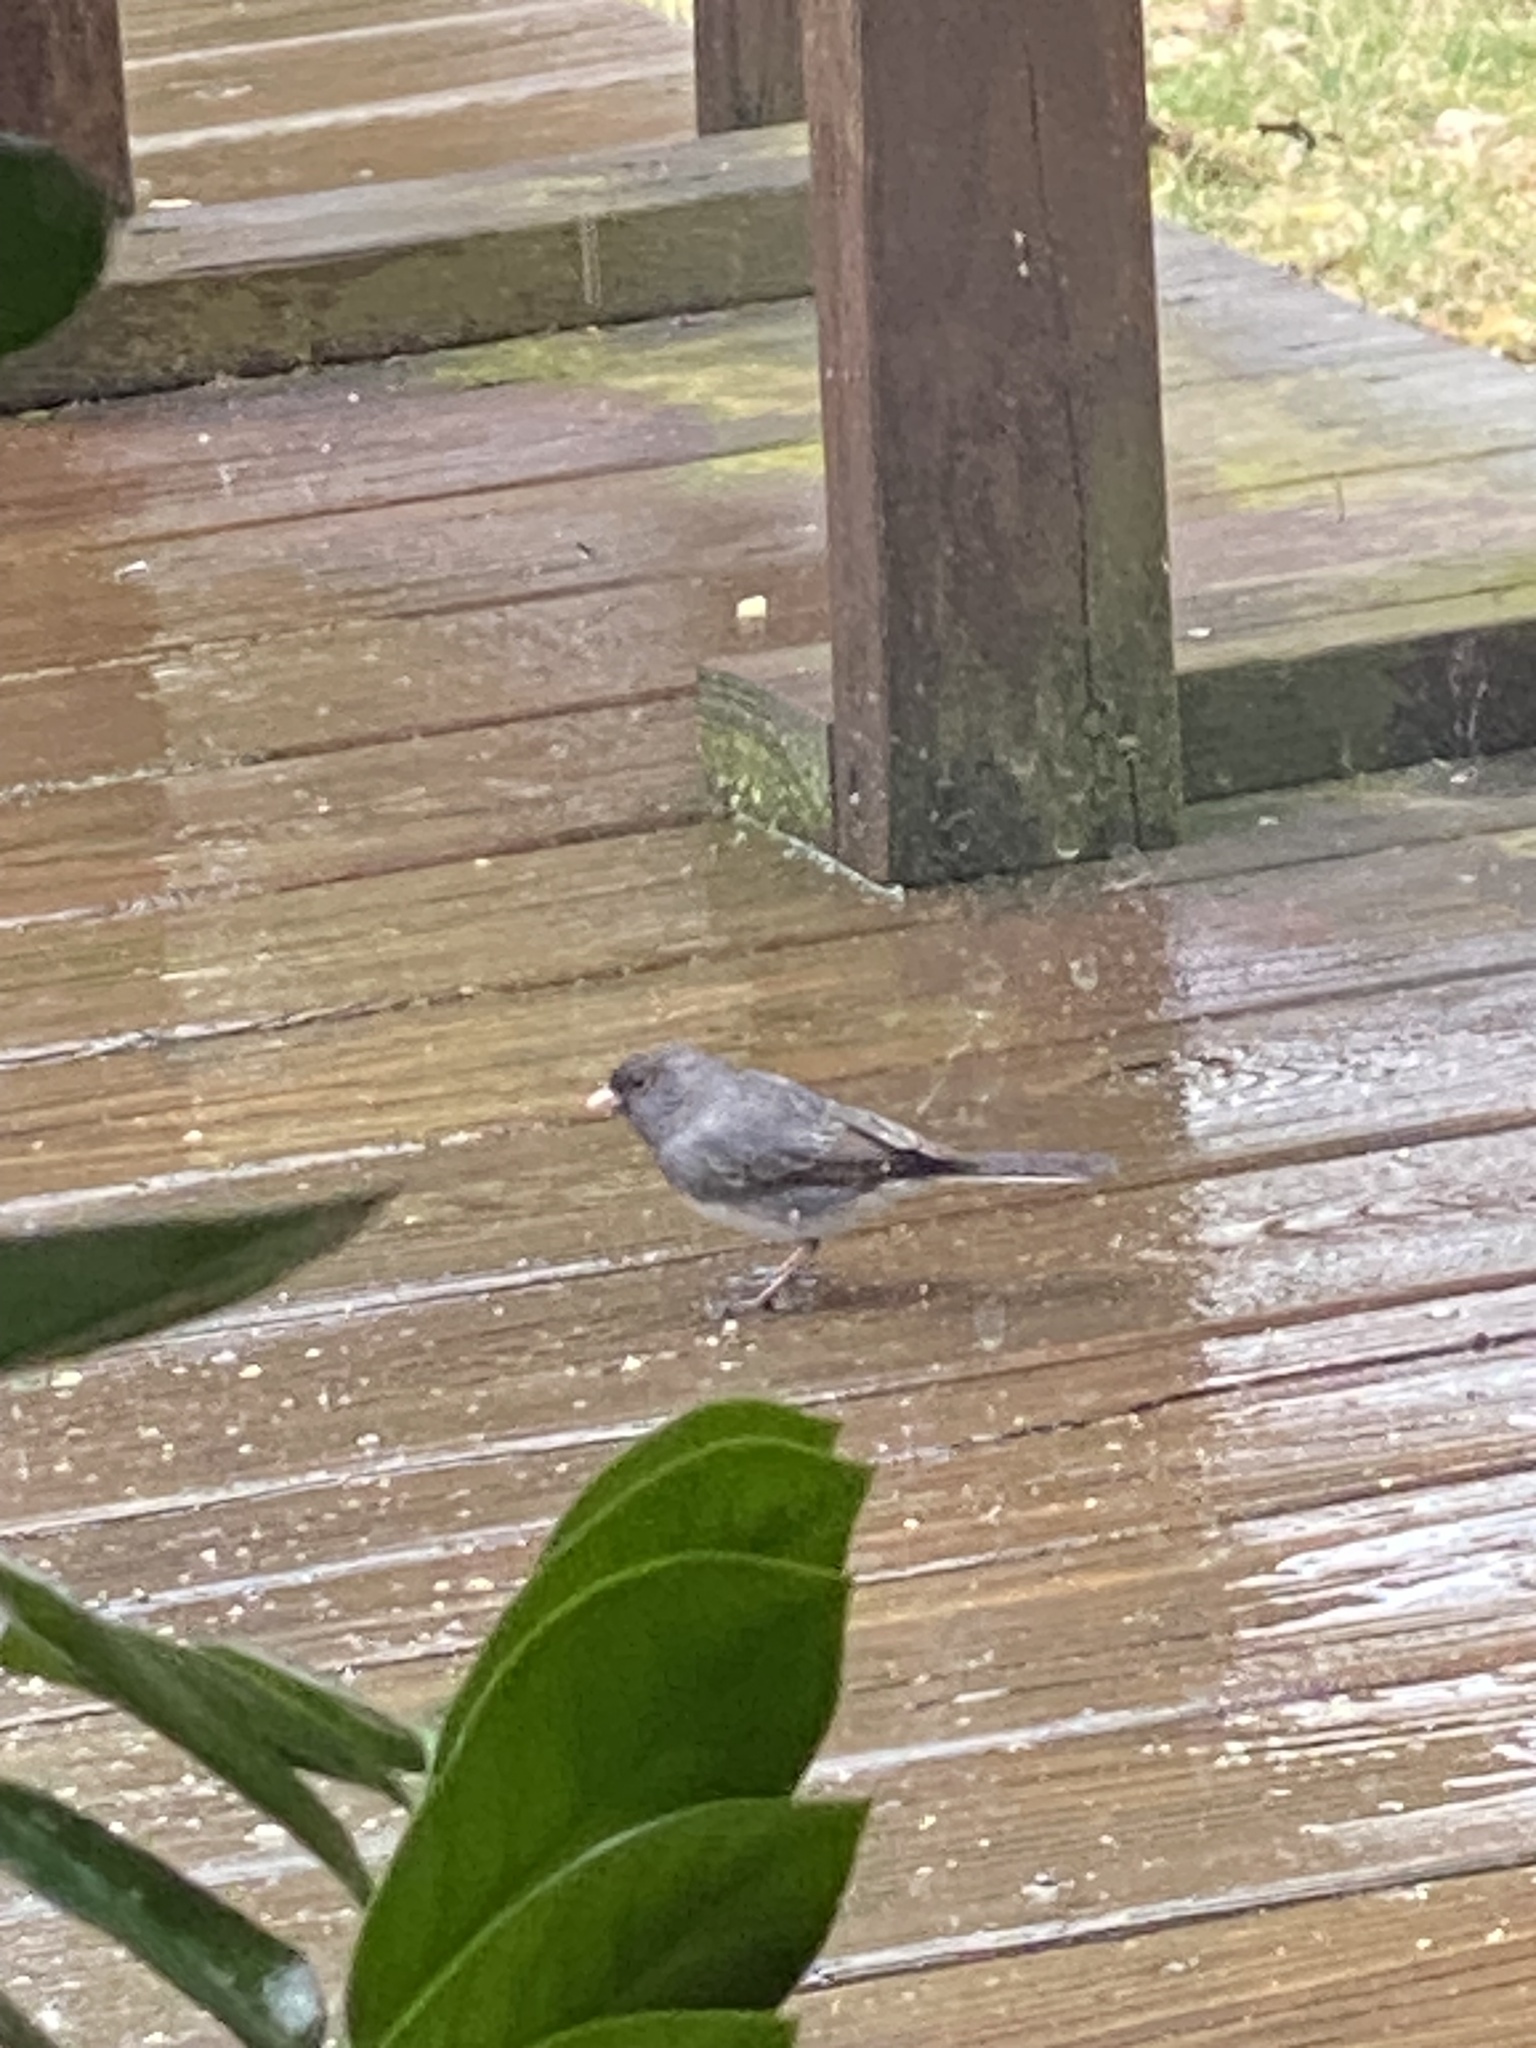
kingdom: Animalia
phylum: Chordata
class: Aves
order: Passeriformes
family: Passerellidae
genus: Junco
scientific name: Junco hyemalis
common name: Dark-eyed junco
